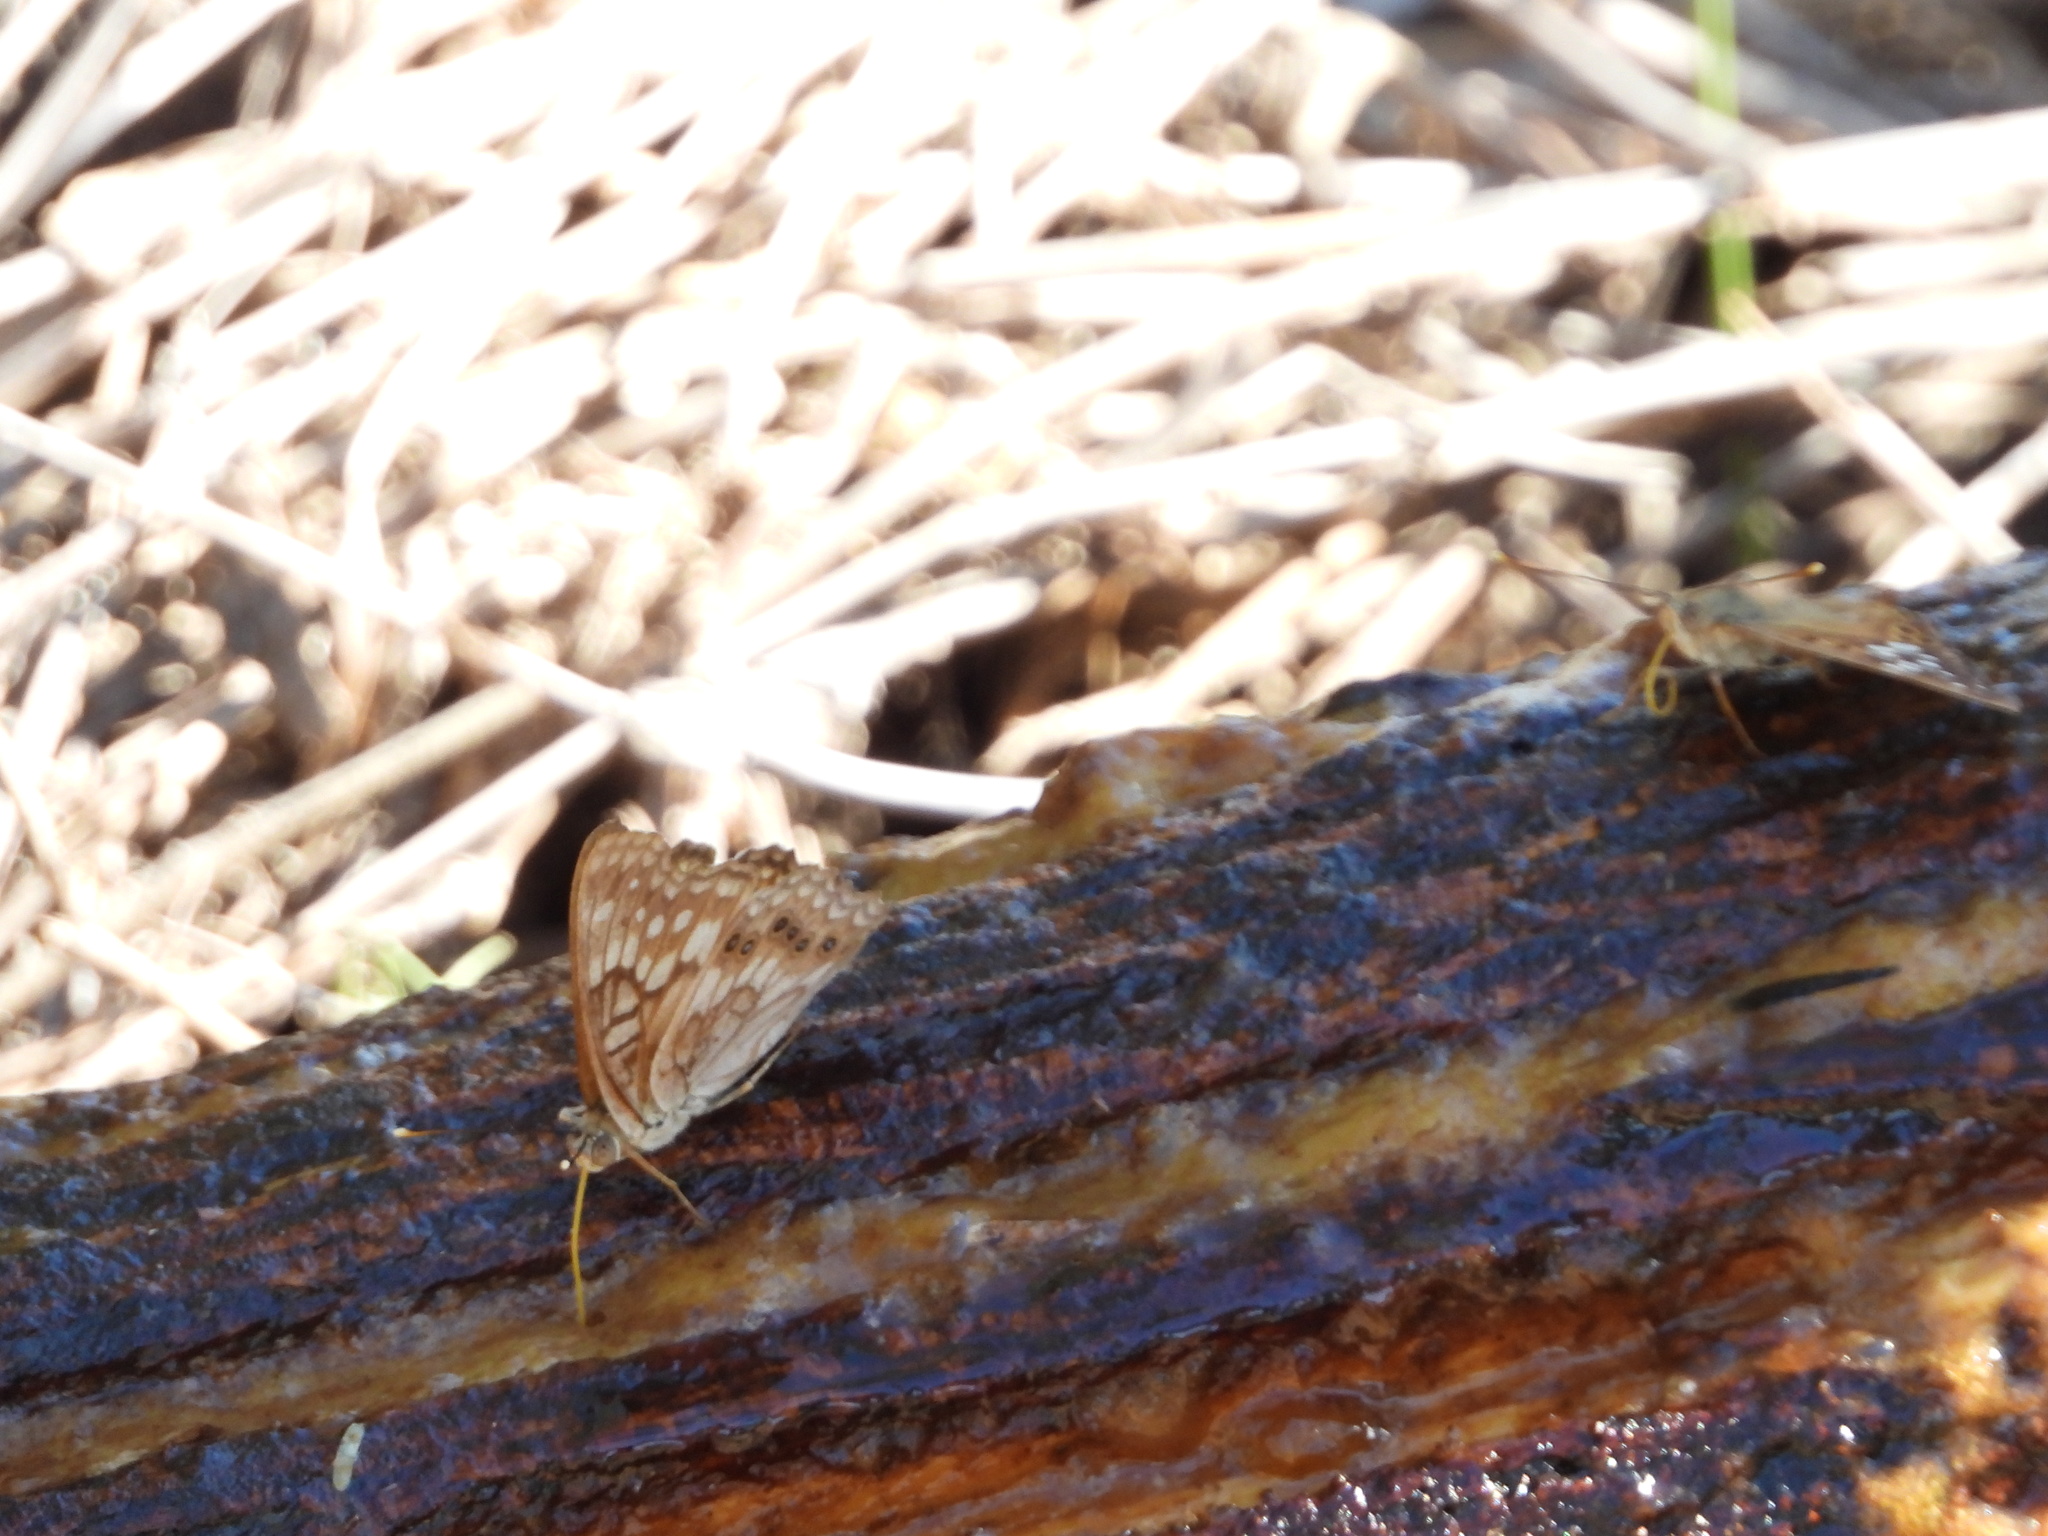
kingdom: Animalia
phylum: Arthropoda
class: Insecta
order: Lepidoptera
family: Nymphalidae
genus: Asterocampa
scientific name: Asterocampa clyton
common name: Tawny emperor
